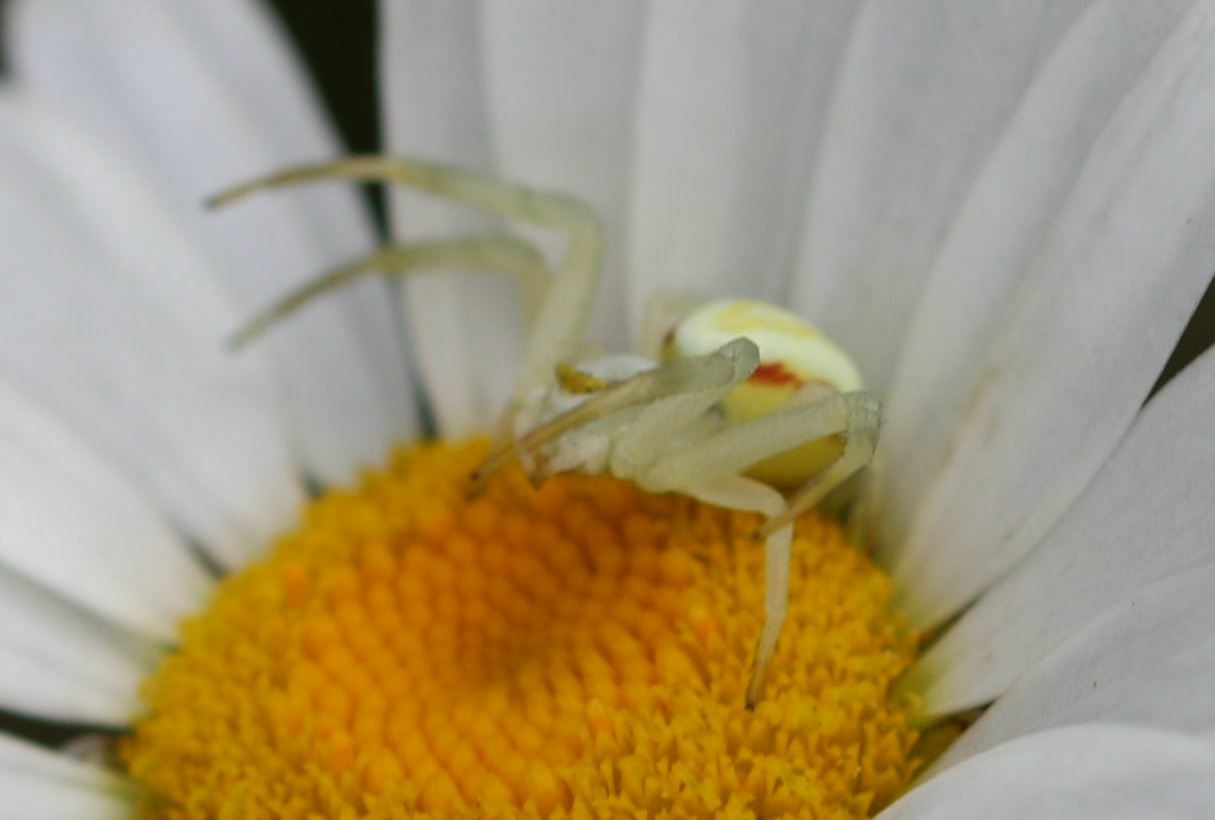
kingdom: Animalia
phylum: Arthropoda
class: Arachnida
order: Araneae
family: Thomisidae
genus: Misumena
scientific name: Misumena vatia
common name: Goldenrod crab spider
